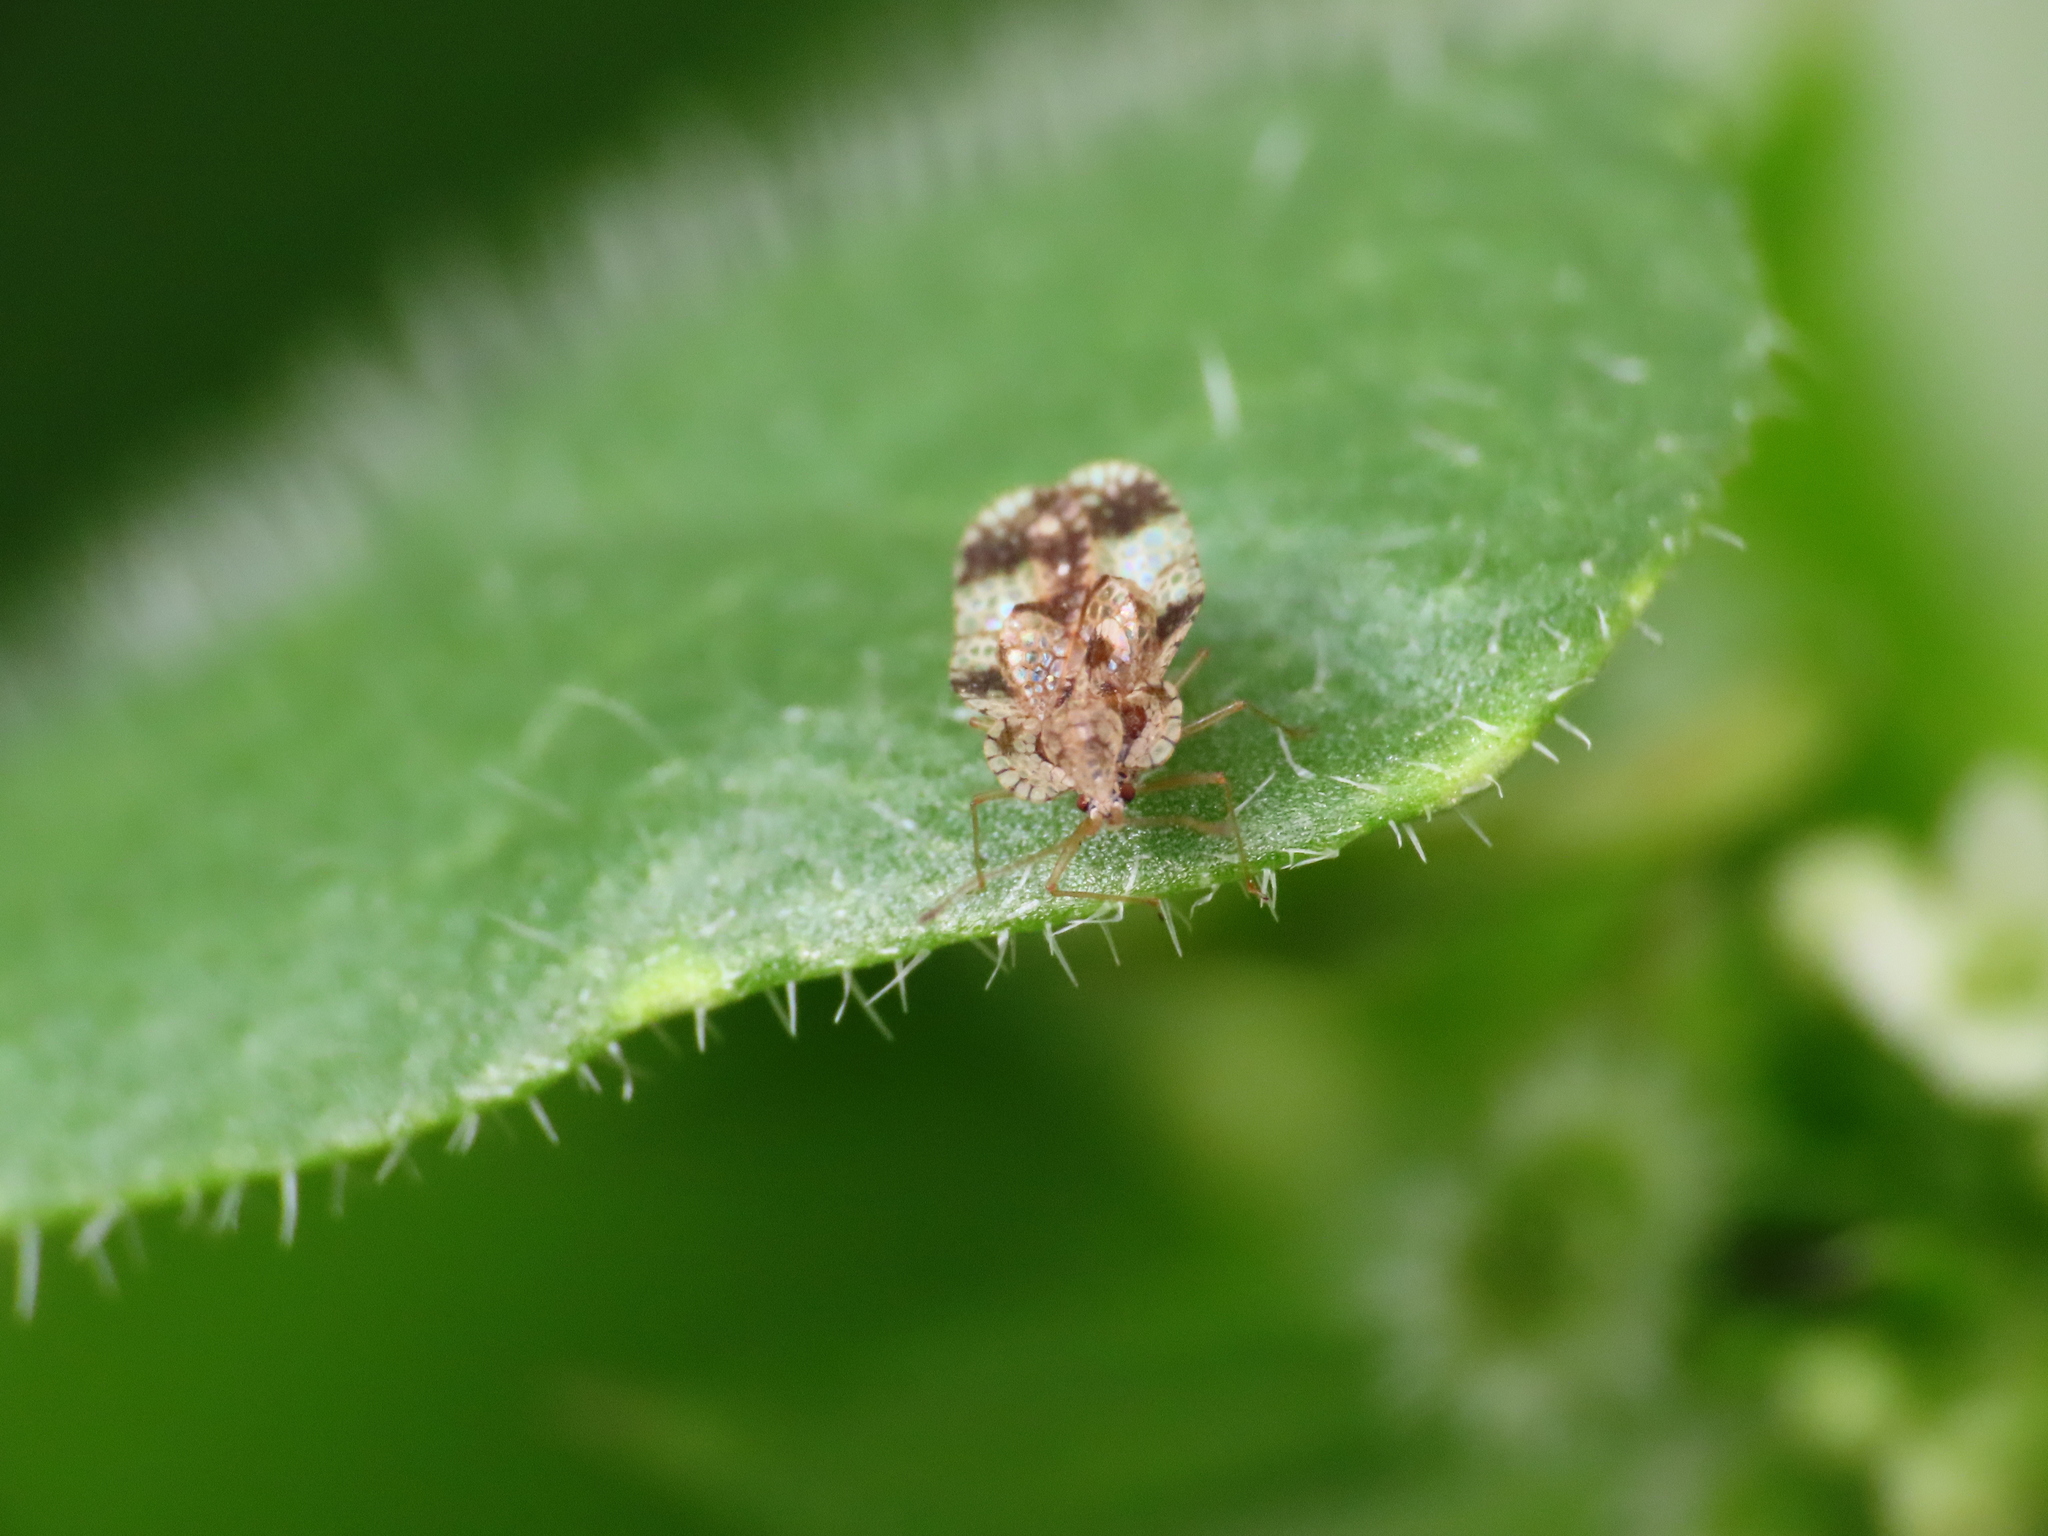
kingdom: Animalia
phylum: Arthropoda
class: Insecta
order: Hemiptera
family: Tingidae
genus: Stephanitis
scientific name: Stephanitis pyri
